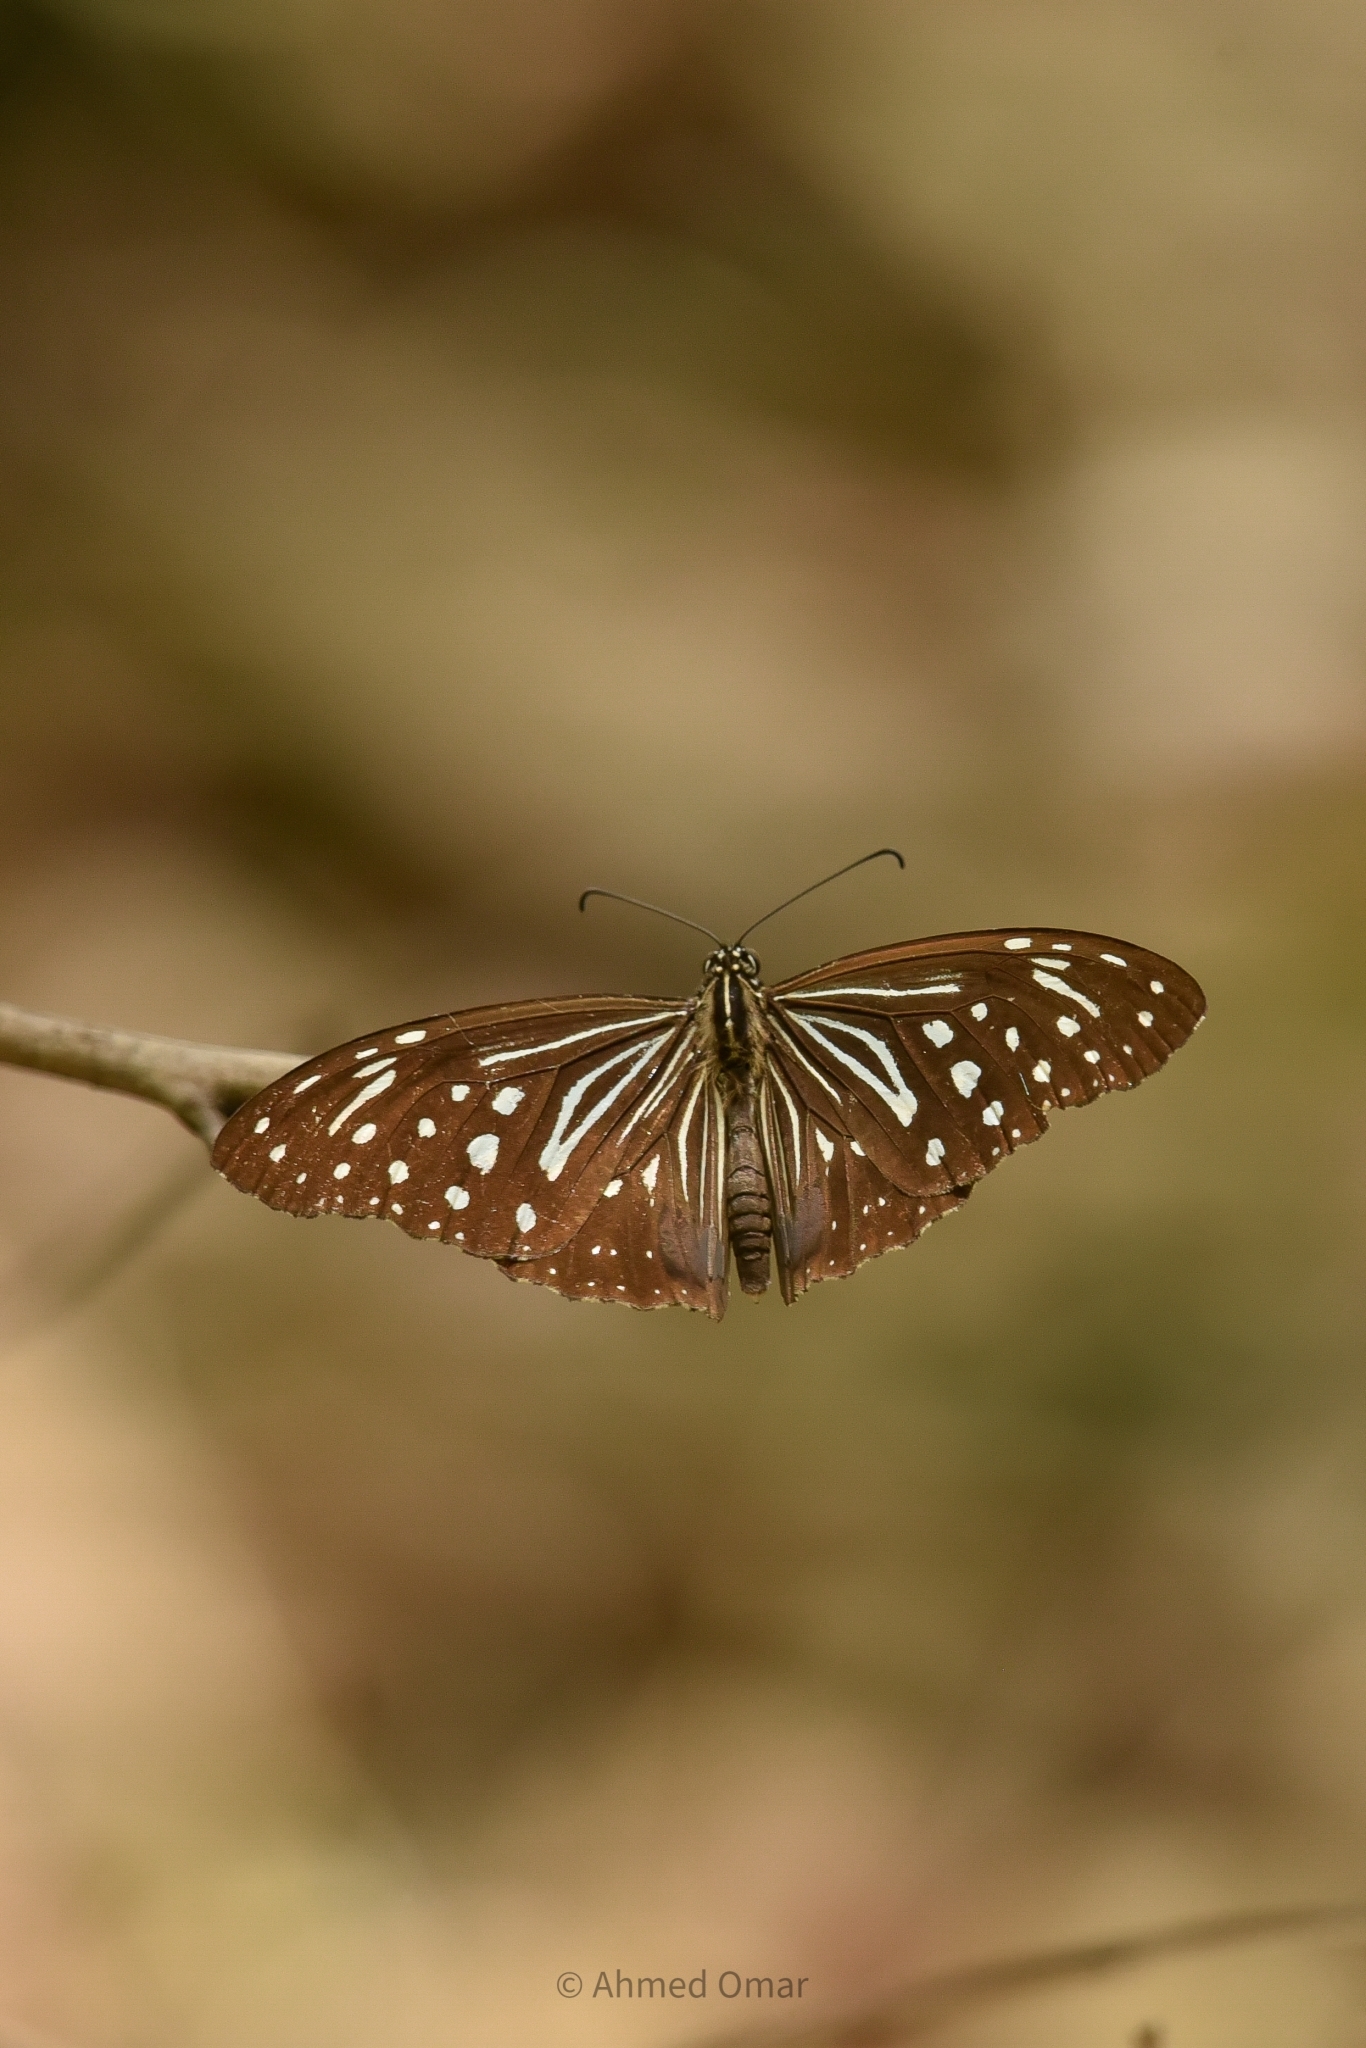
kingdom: Animalia
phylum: Arthropoda
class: Insecta
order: Lepidoptera
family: Nymphalidae
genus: Parantica
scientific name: Parantica nilgiriensis
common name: Nilgiri tiger
